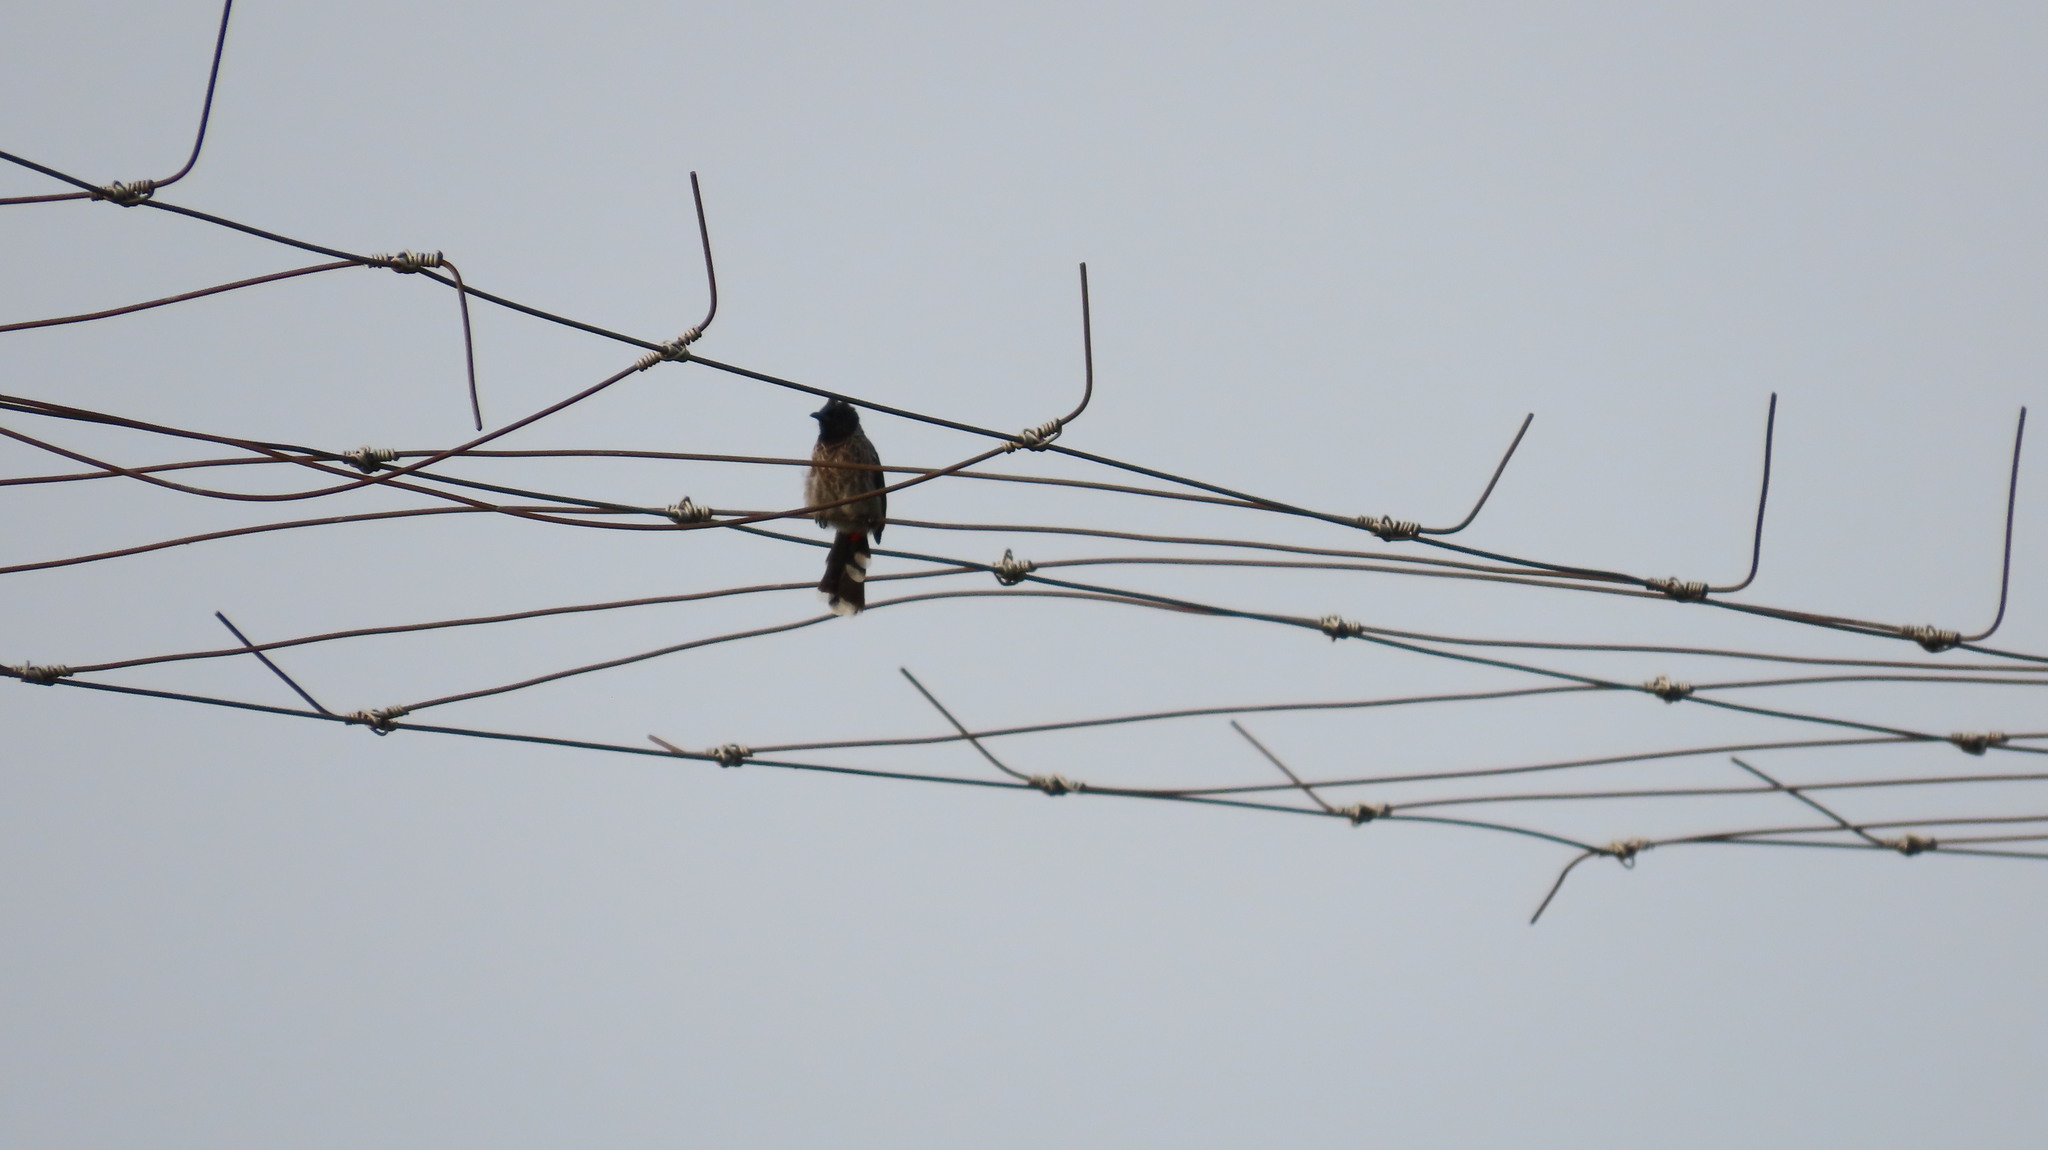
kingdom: Animalia
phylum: Chordata
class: Aves
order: Passeriformes
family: Pycnonotidae
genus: Pycnonotus
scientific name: Pycnonotus cafer
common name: Red-vented bulbul
